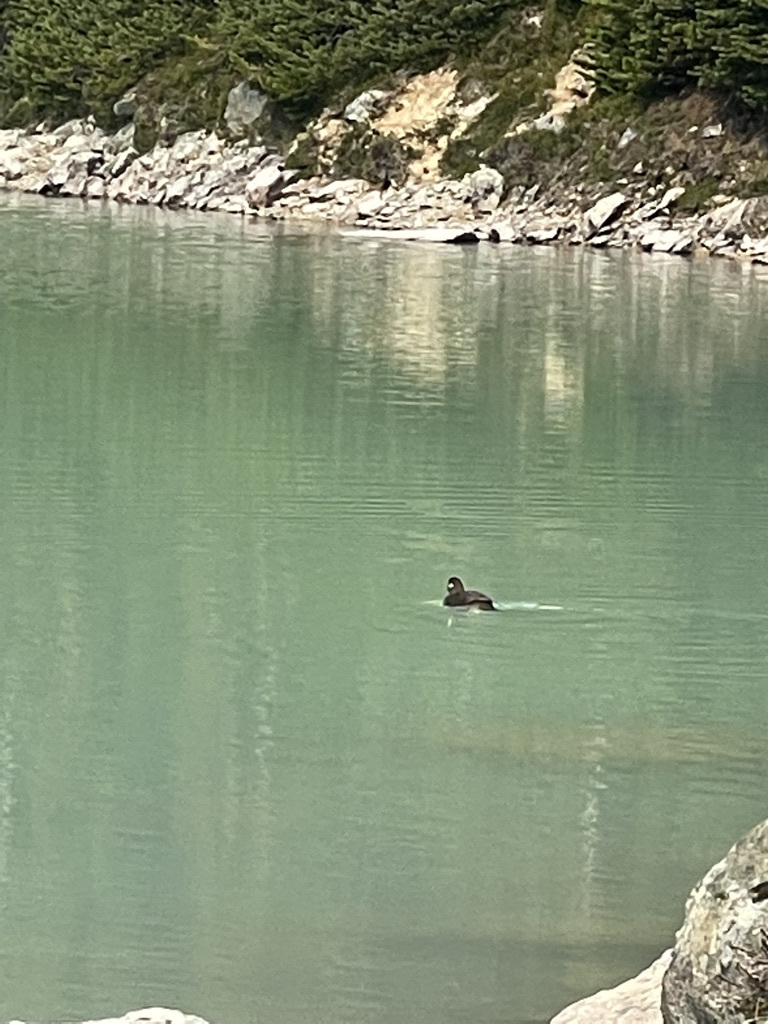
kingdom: Animalia
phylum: Chordata
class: Aves
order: Anseriformes
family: Anatidae
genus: Histrionicus
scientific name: Histrionicus histrionicus
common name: Harlequin duck
